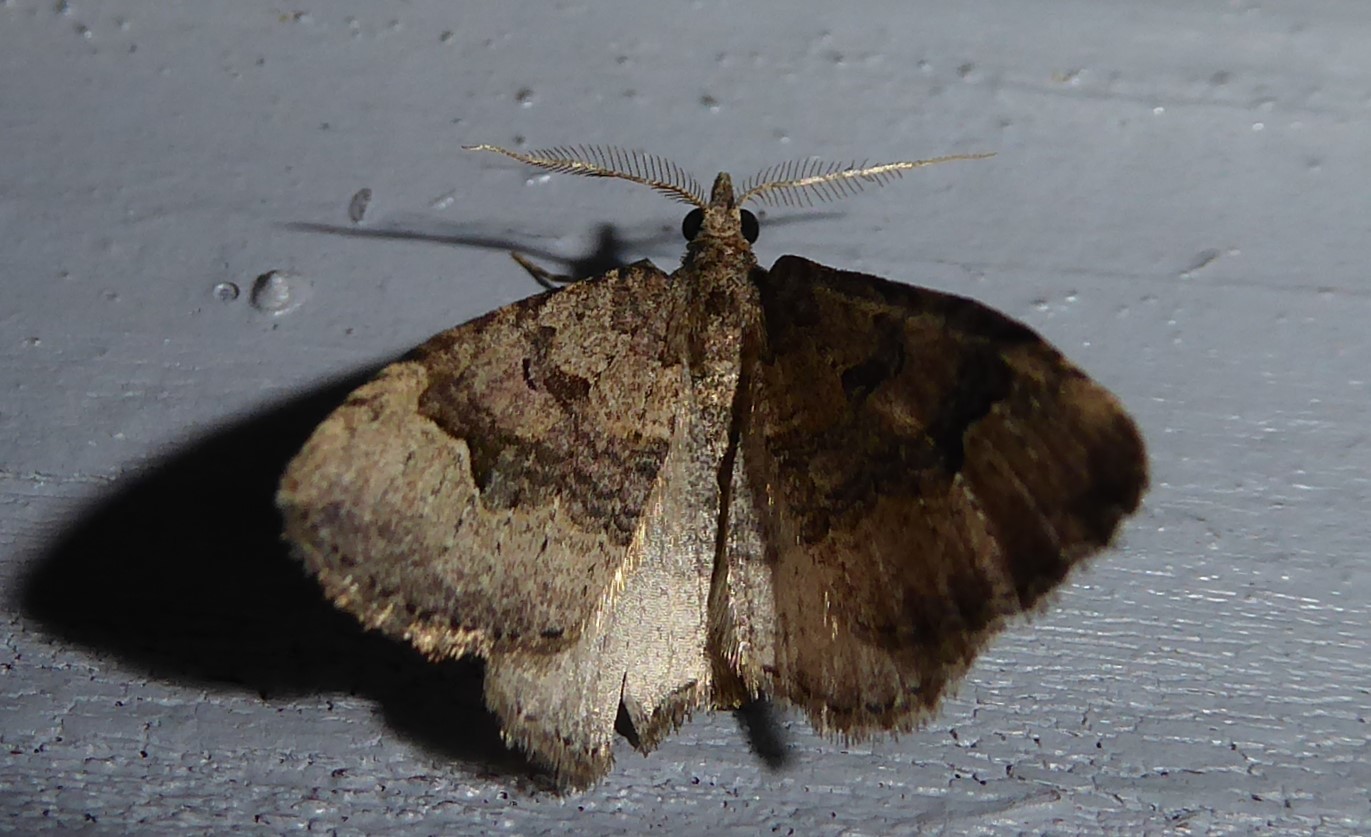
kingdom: Animalia
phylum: Arthropoda
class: Insecta
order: Lepidoptera
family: Geometridae
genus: Epyaxa
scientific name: Epyaxa rosearia
